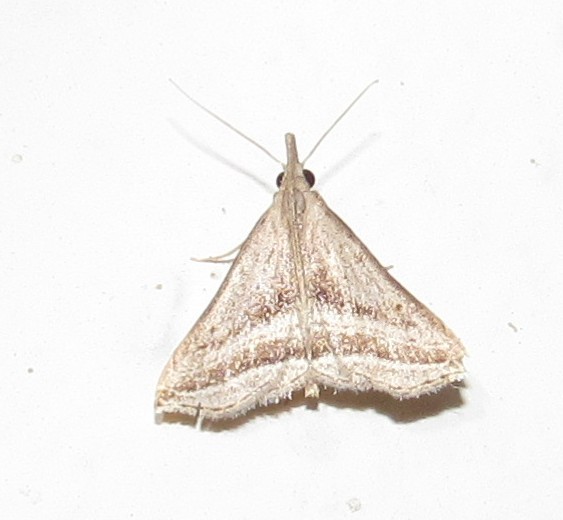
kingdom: Animalia
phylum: Arthropoda
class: Insecta
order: Lepidoptera
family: Erebidae
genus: Charmodia
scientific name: Charmodia vectis
